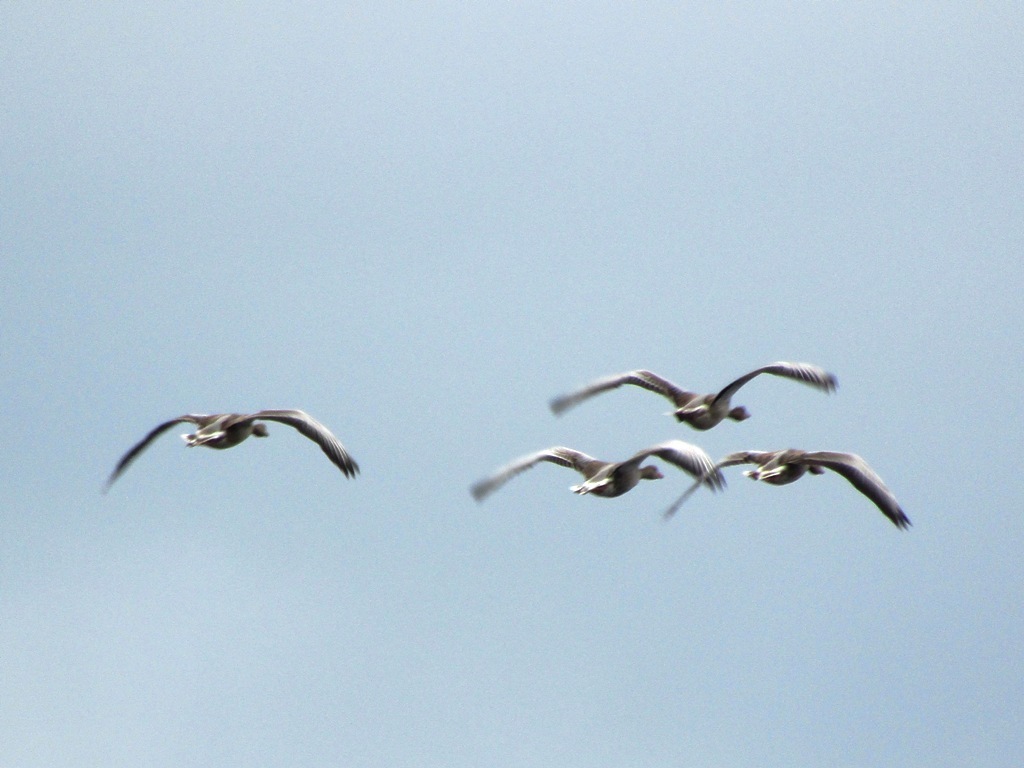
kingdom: Animalia
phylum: Chordata
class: Aves
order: Anseriformes
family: Anatidae
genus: Anser
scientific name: Anser anser
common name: Greylag goose
